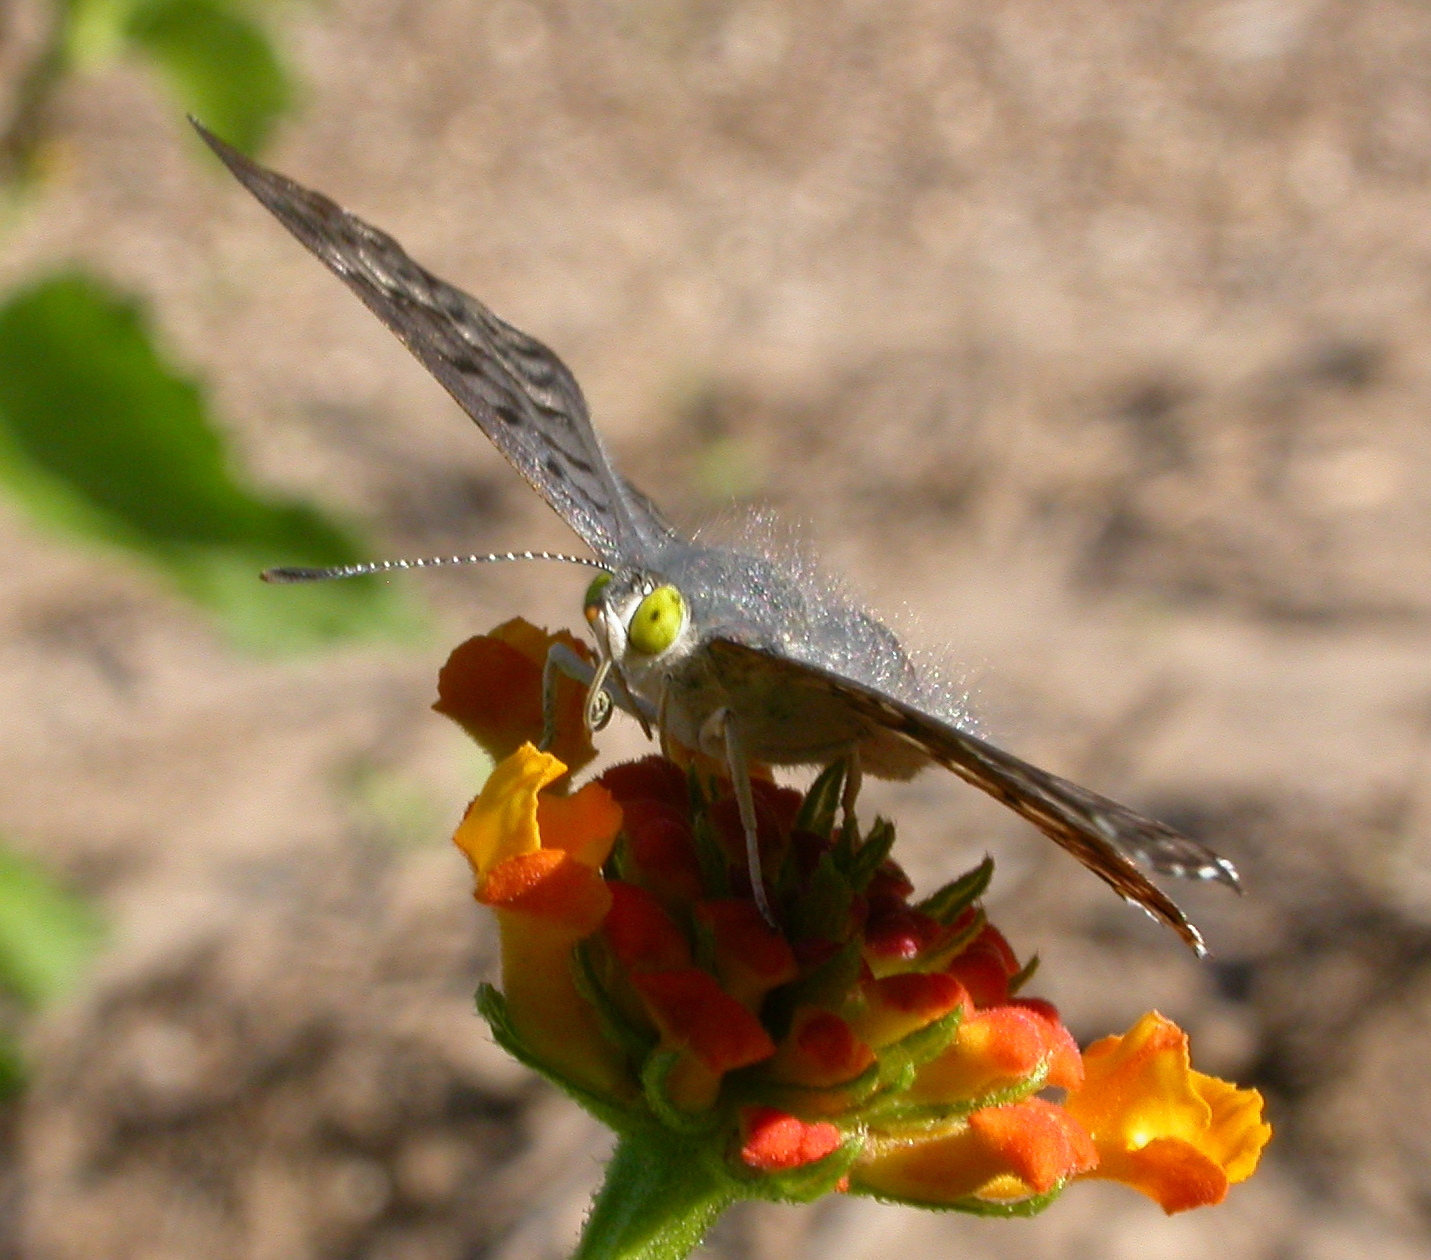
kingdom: Animalia
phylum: Arthropoda
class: Insecta
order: Lepidoptera
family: Riodinidae
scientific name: Riodinidae
